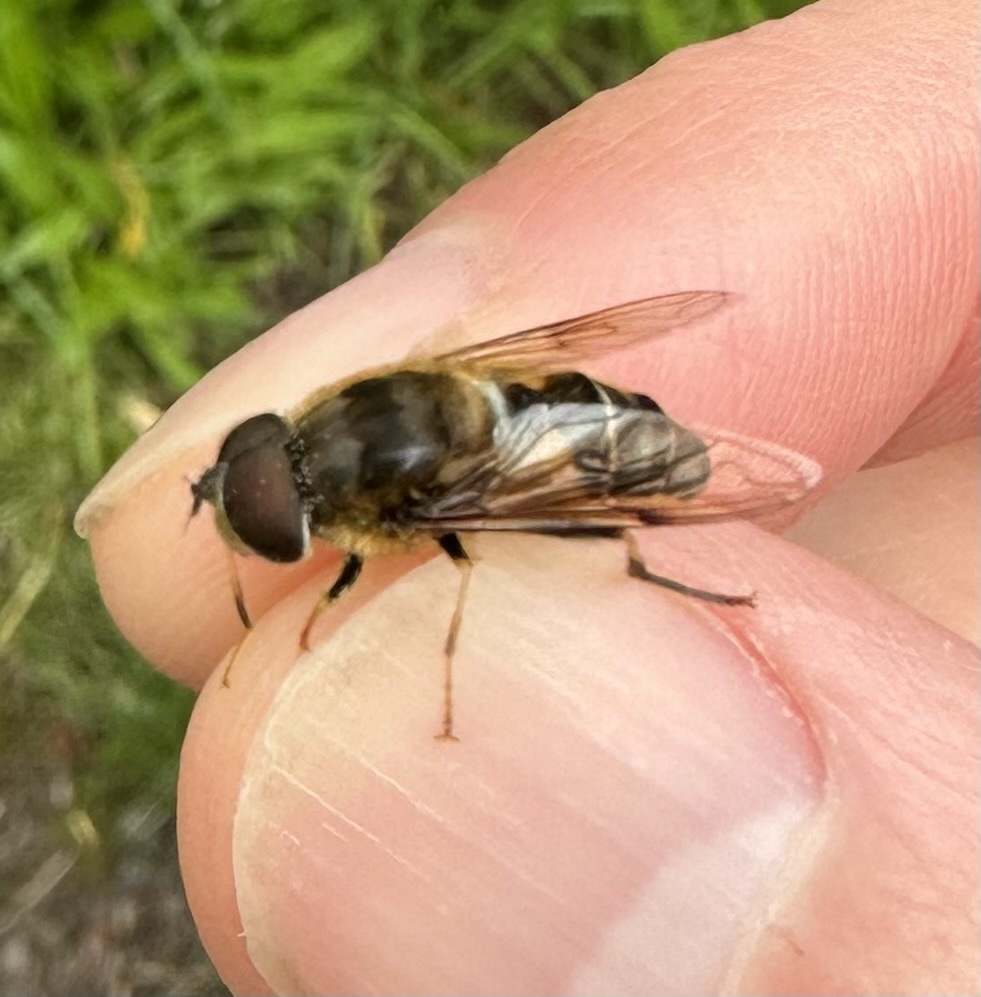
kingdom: Animalia
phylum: Arthropoda
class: Insecta
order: Diptera
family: Syrphidae
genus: Eristalis
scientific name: Eristalis pertinax
